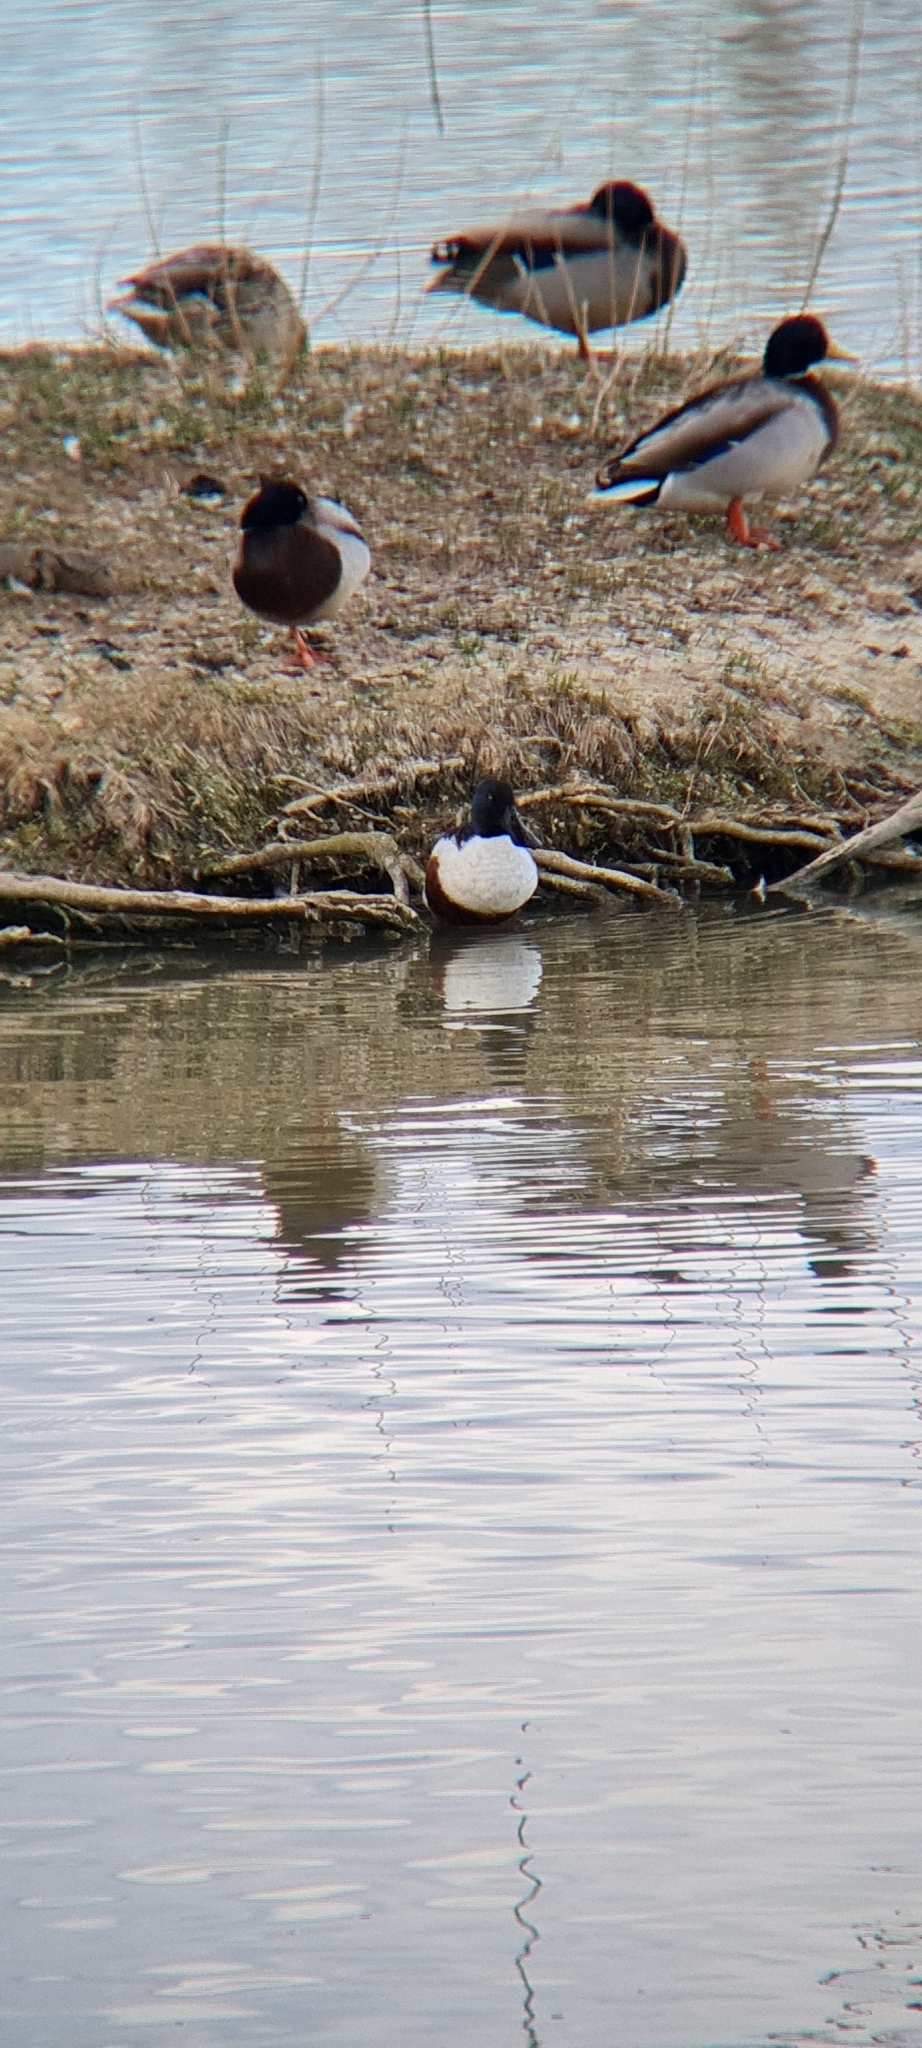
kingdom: Animalia
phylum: Chordata
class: Aves
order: Anseriformes
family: Anatidae
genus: Spatula
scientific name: Spatula clypeata
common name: Northern shoveler
